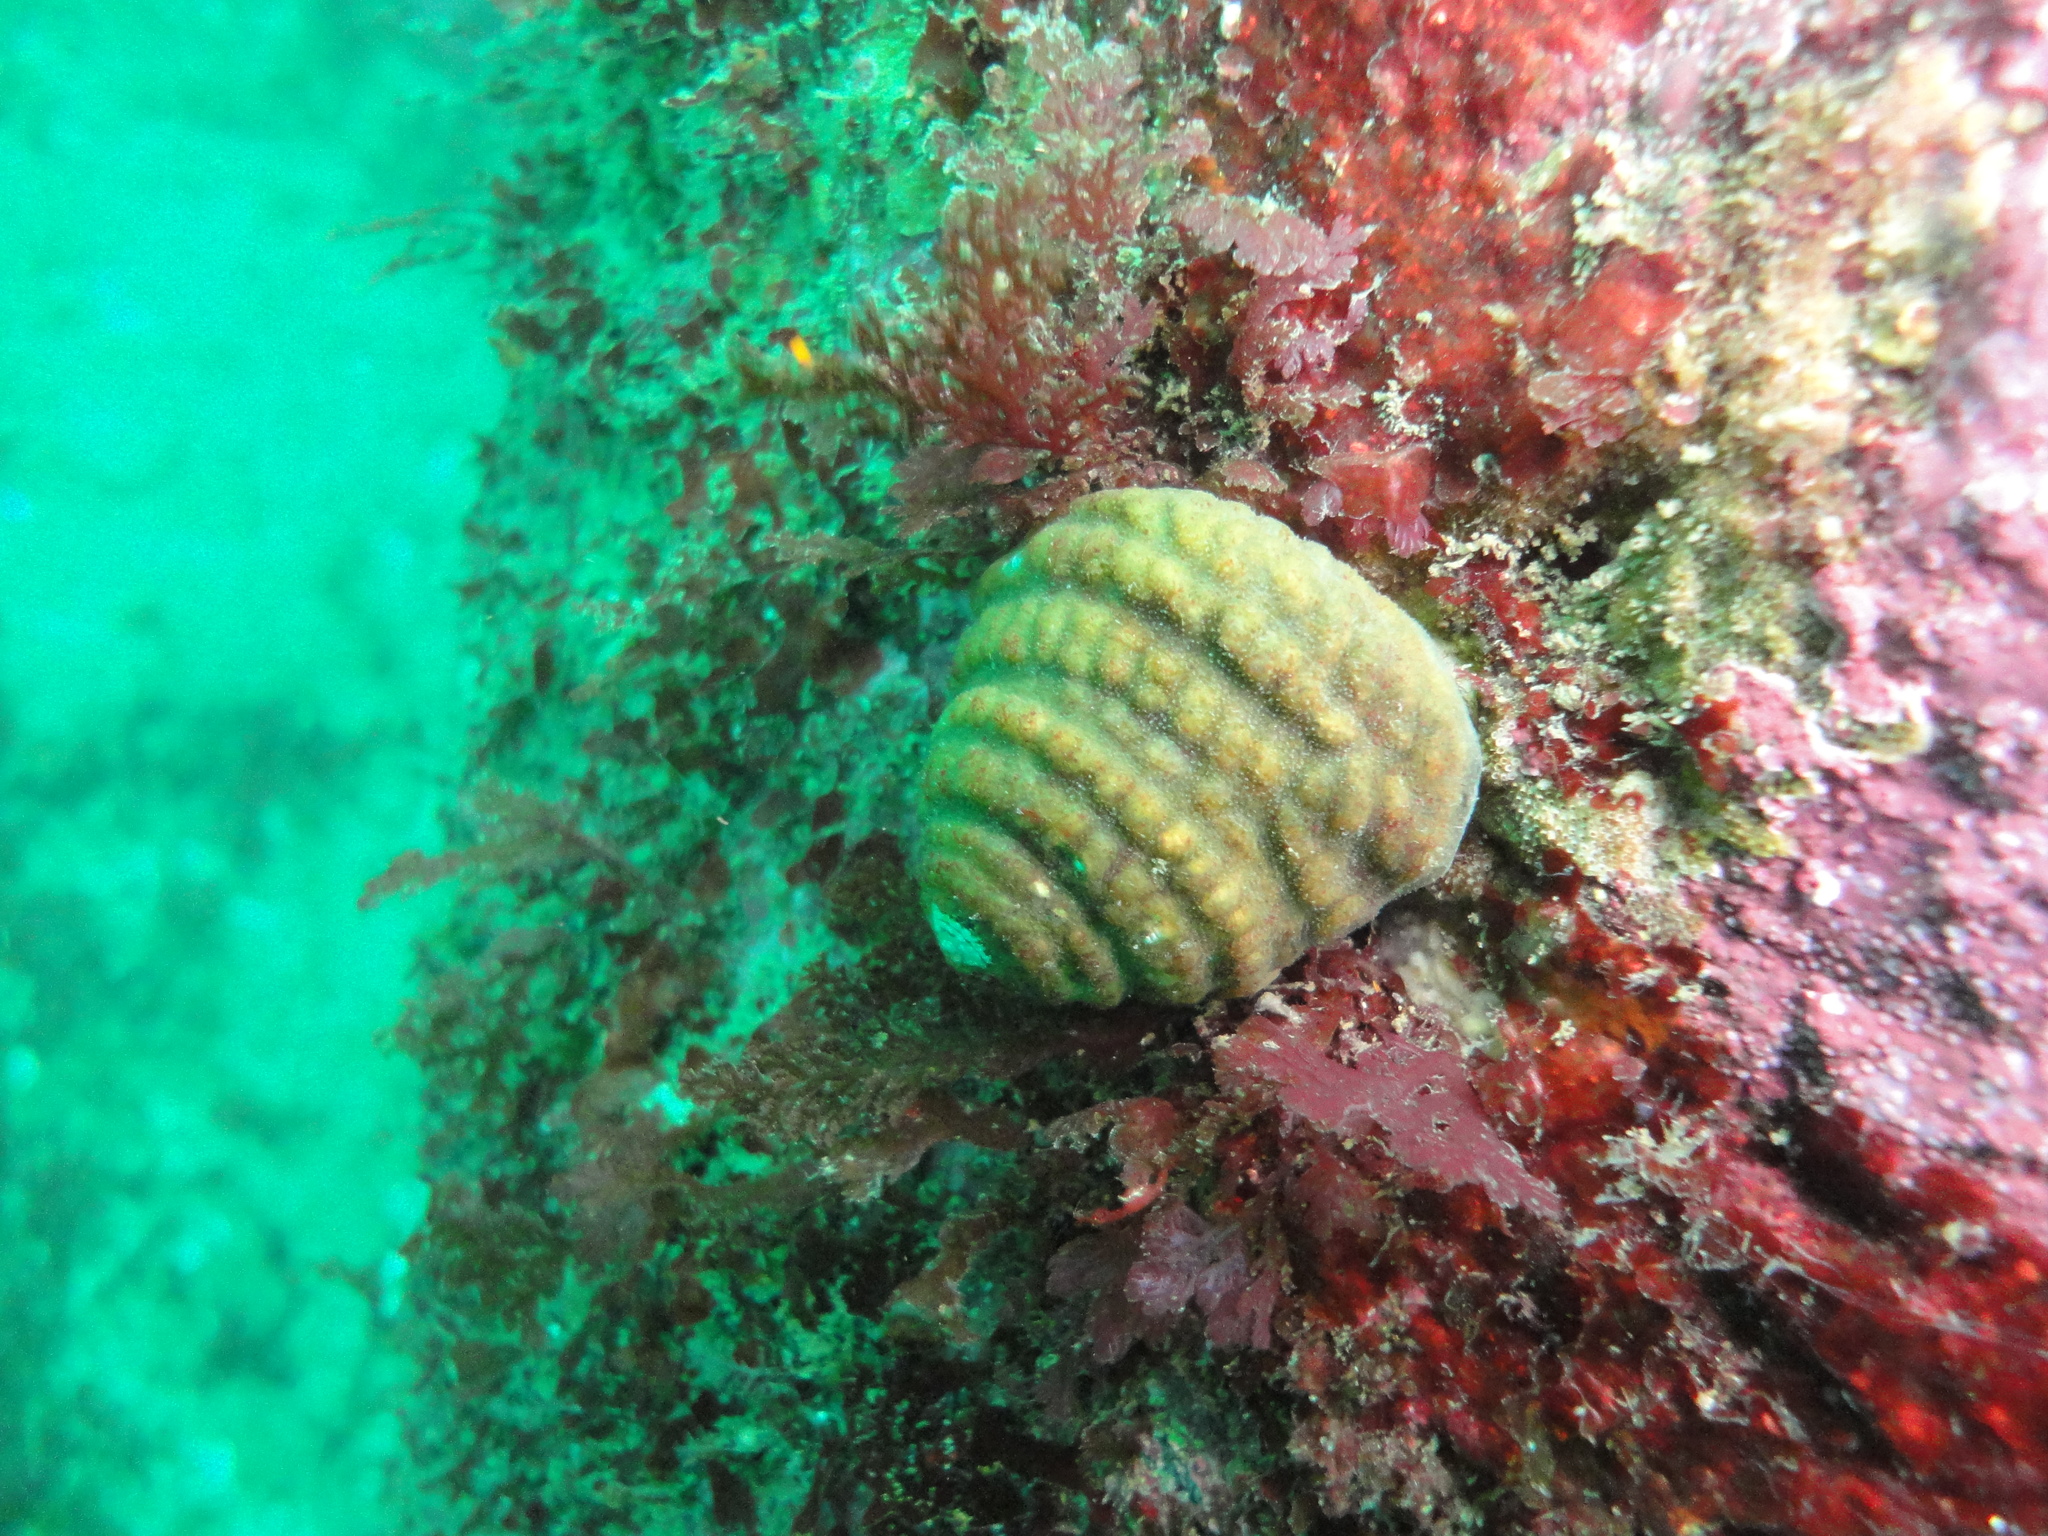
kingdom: Animalia
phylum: Mollusca
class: Gastropoda
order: Trochida
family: Tegulidae
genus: Tegula
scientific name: Tegula quadricostata
